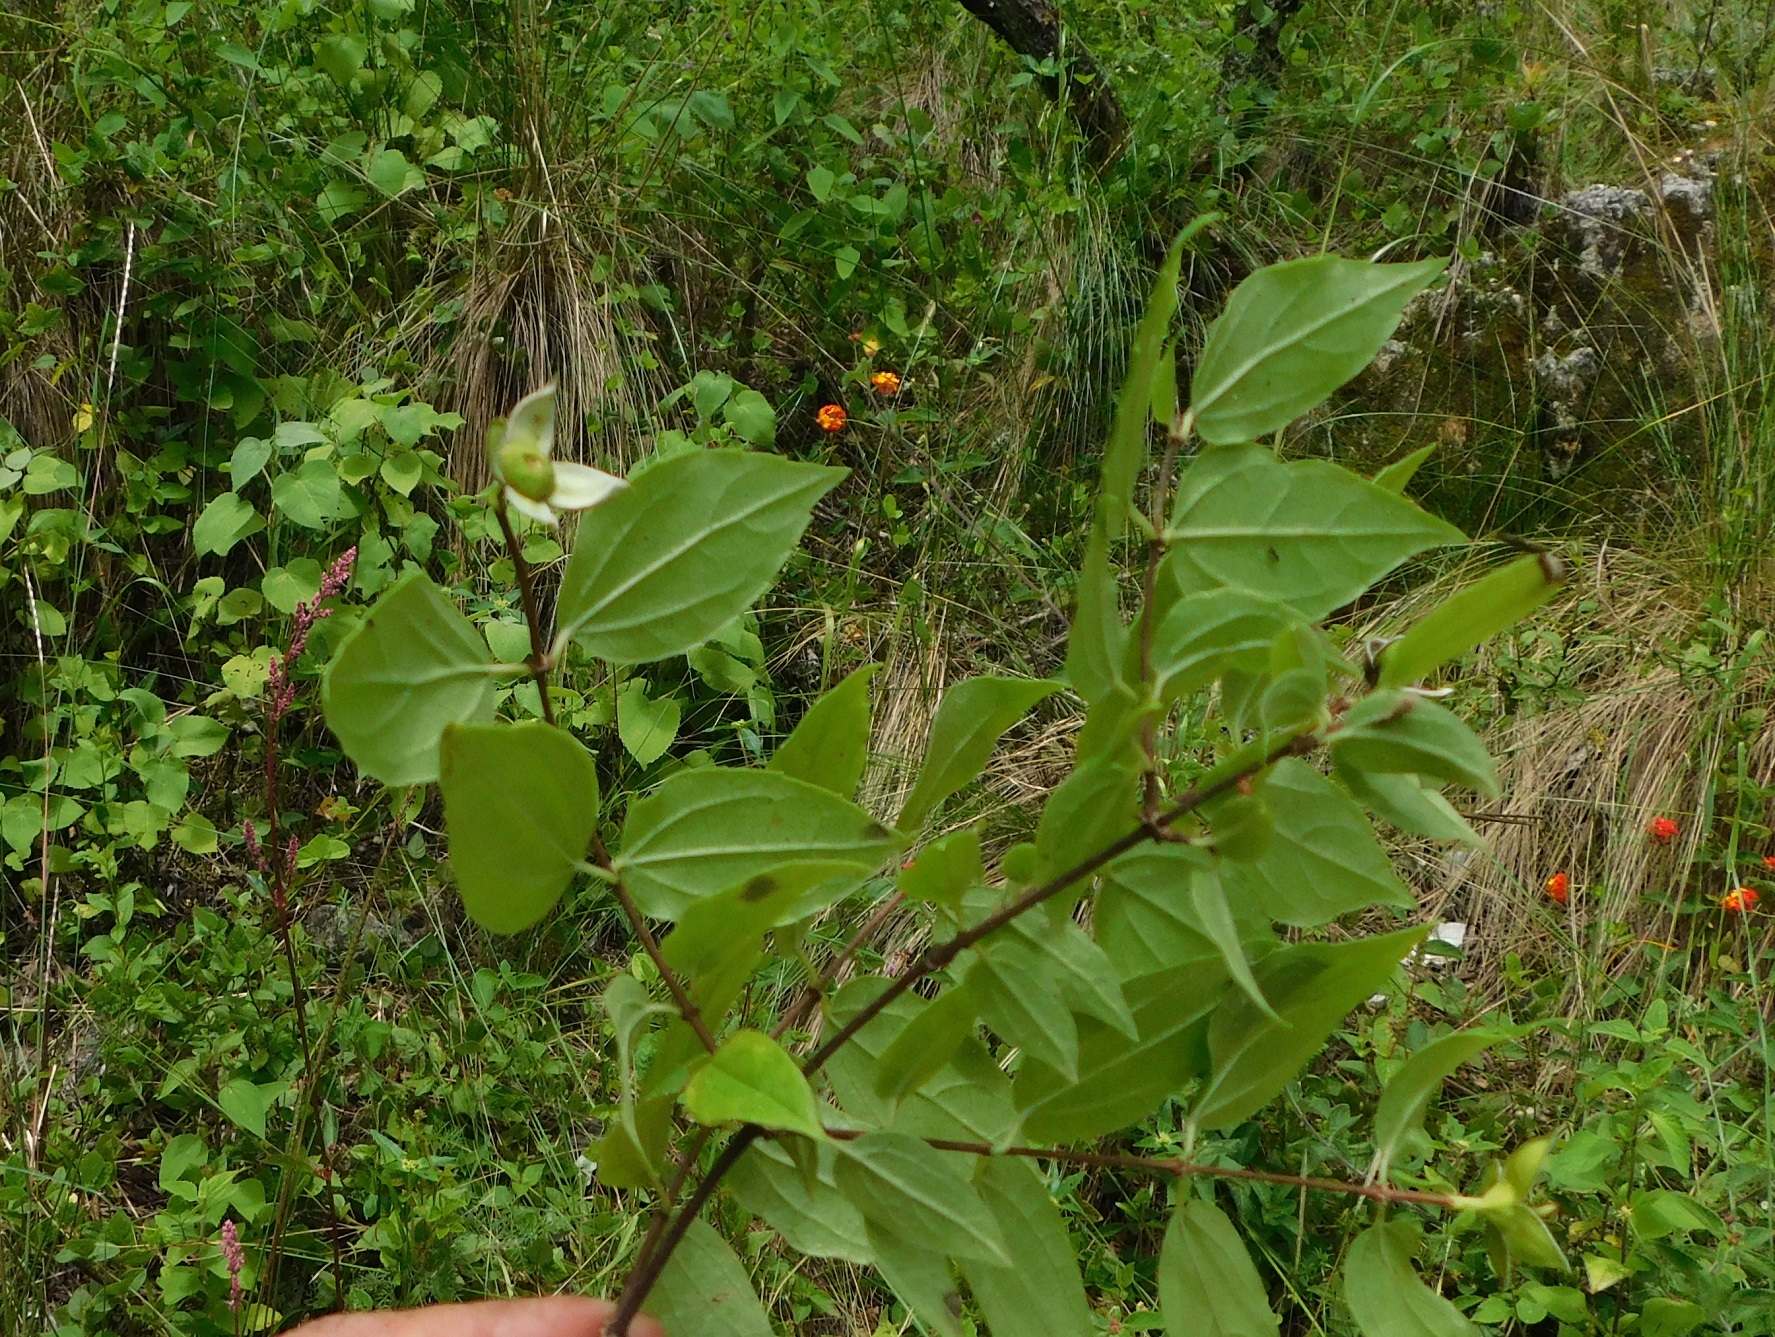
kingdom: Plantae
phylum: Tracheophyta
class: Magnoliopsida
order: Cornales
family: Hydrangeaceae
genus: Philadelphus
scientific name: Philadelphus mexicanus
